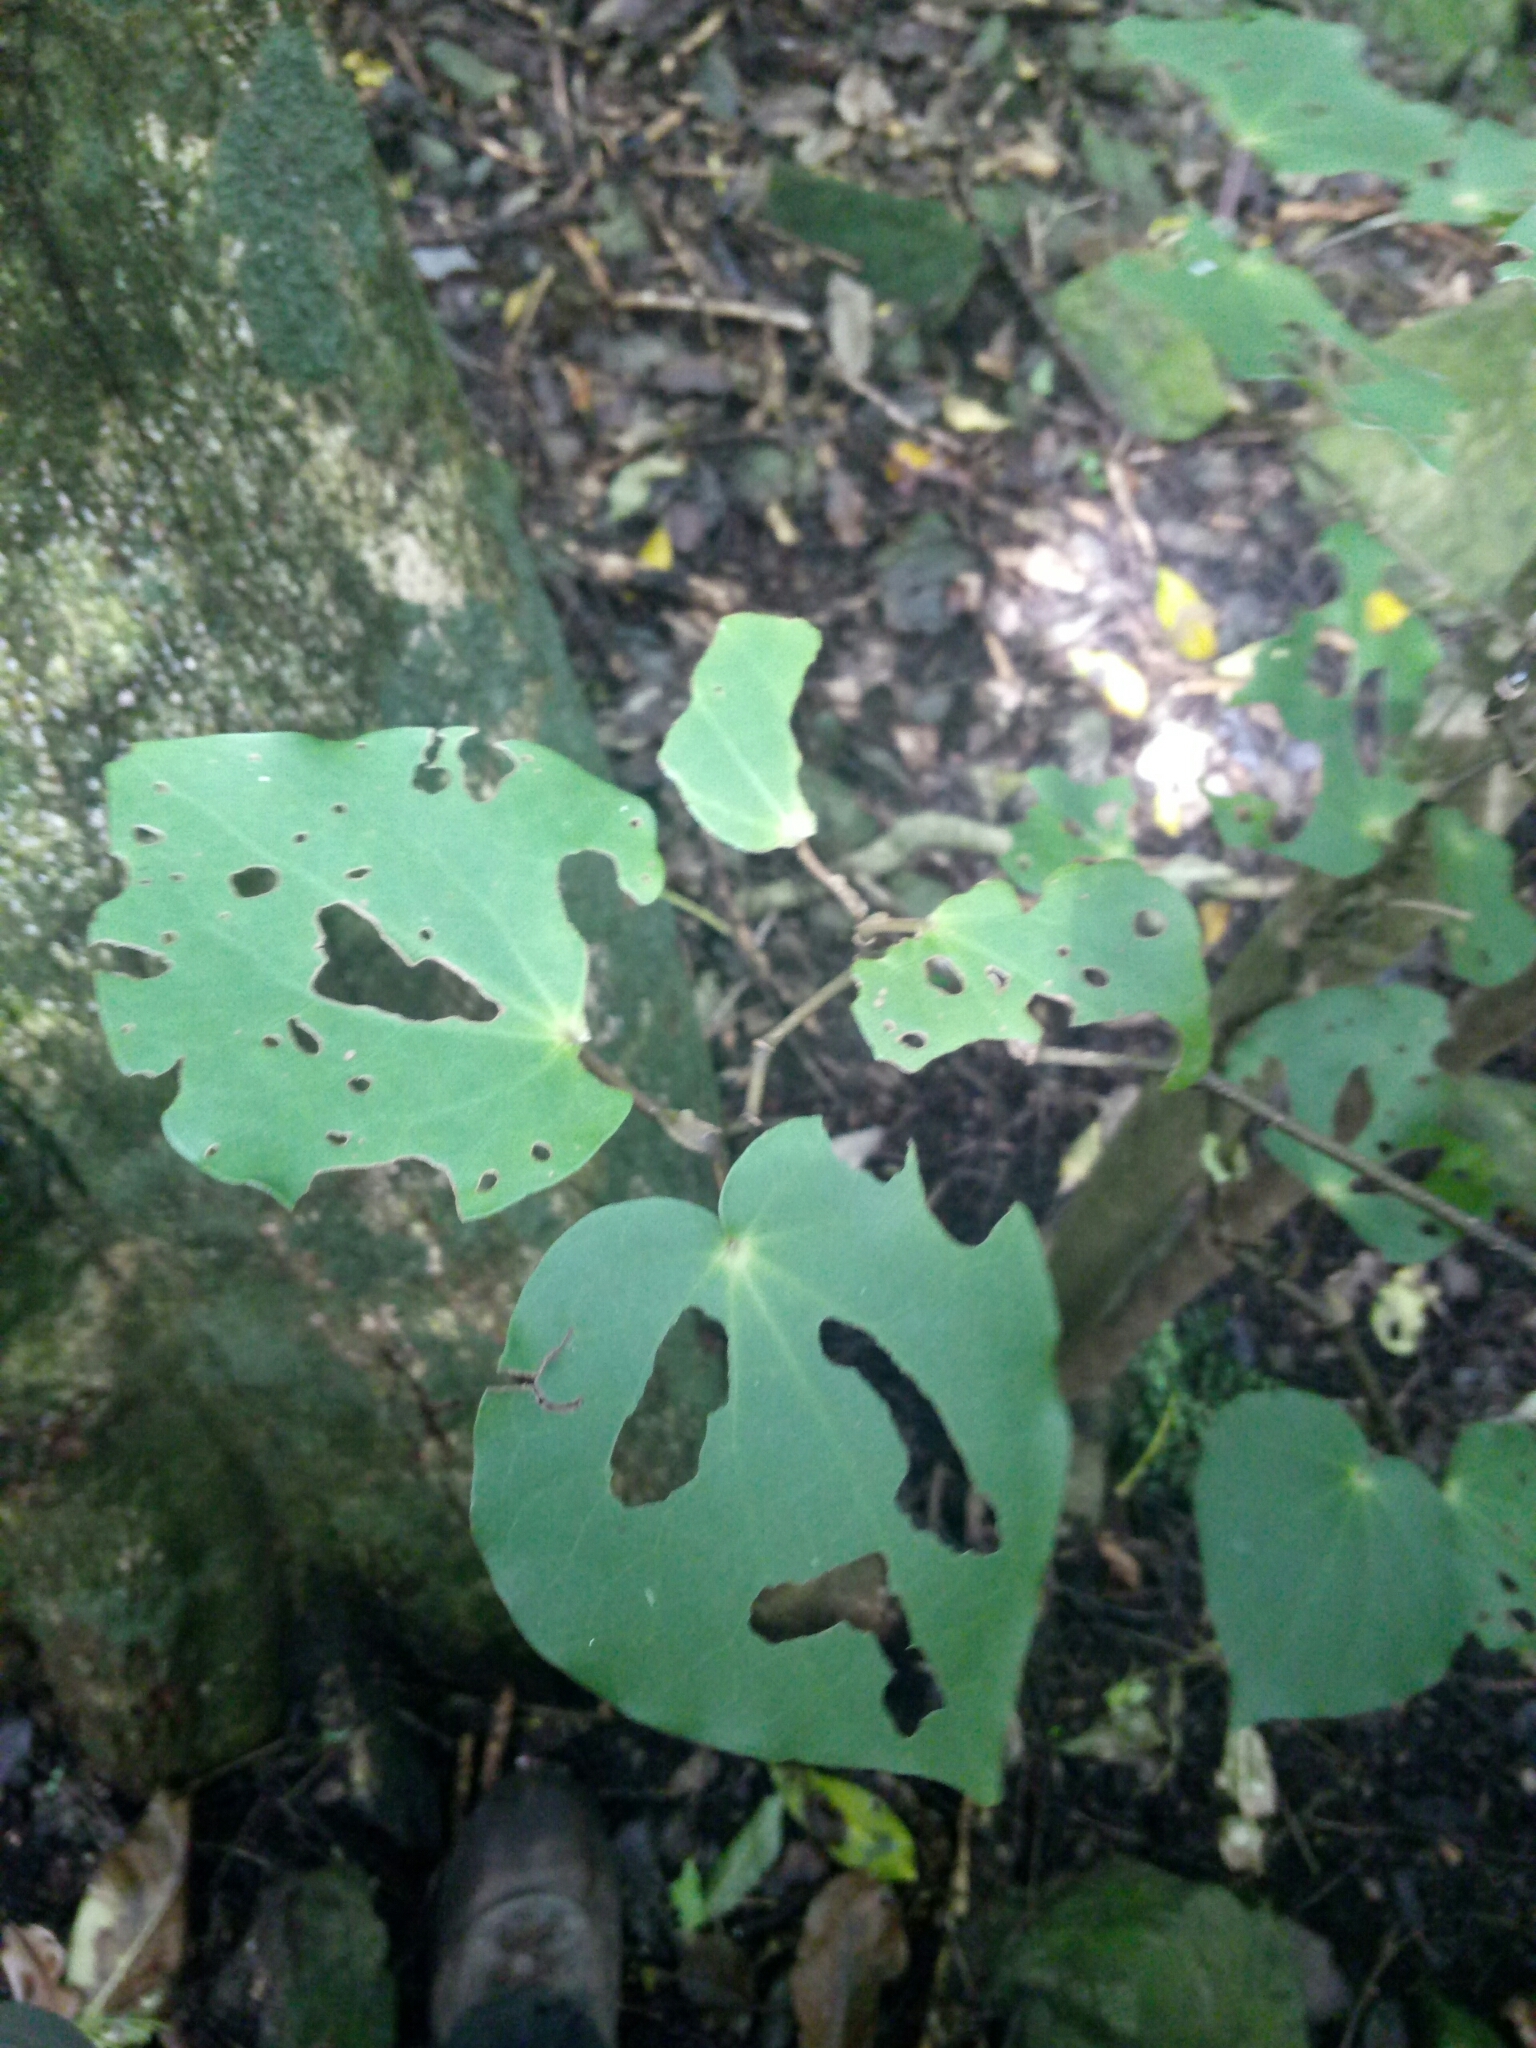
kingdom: Plantae
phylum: Tracheophyta
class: Magnoliopsida
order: Piperales
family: Piperaceae
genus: Macropiper
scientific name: Macropiper excelsum
